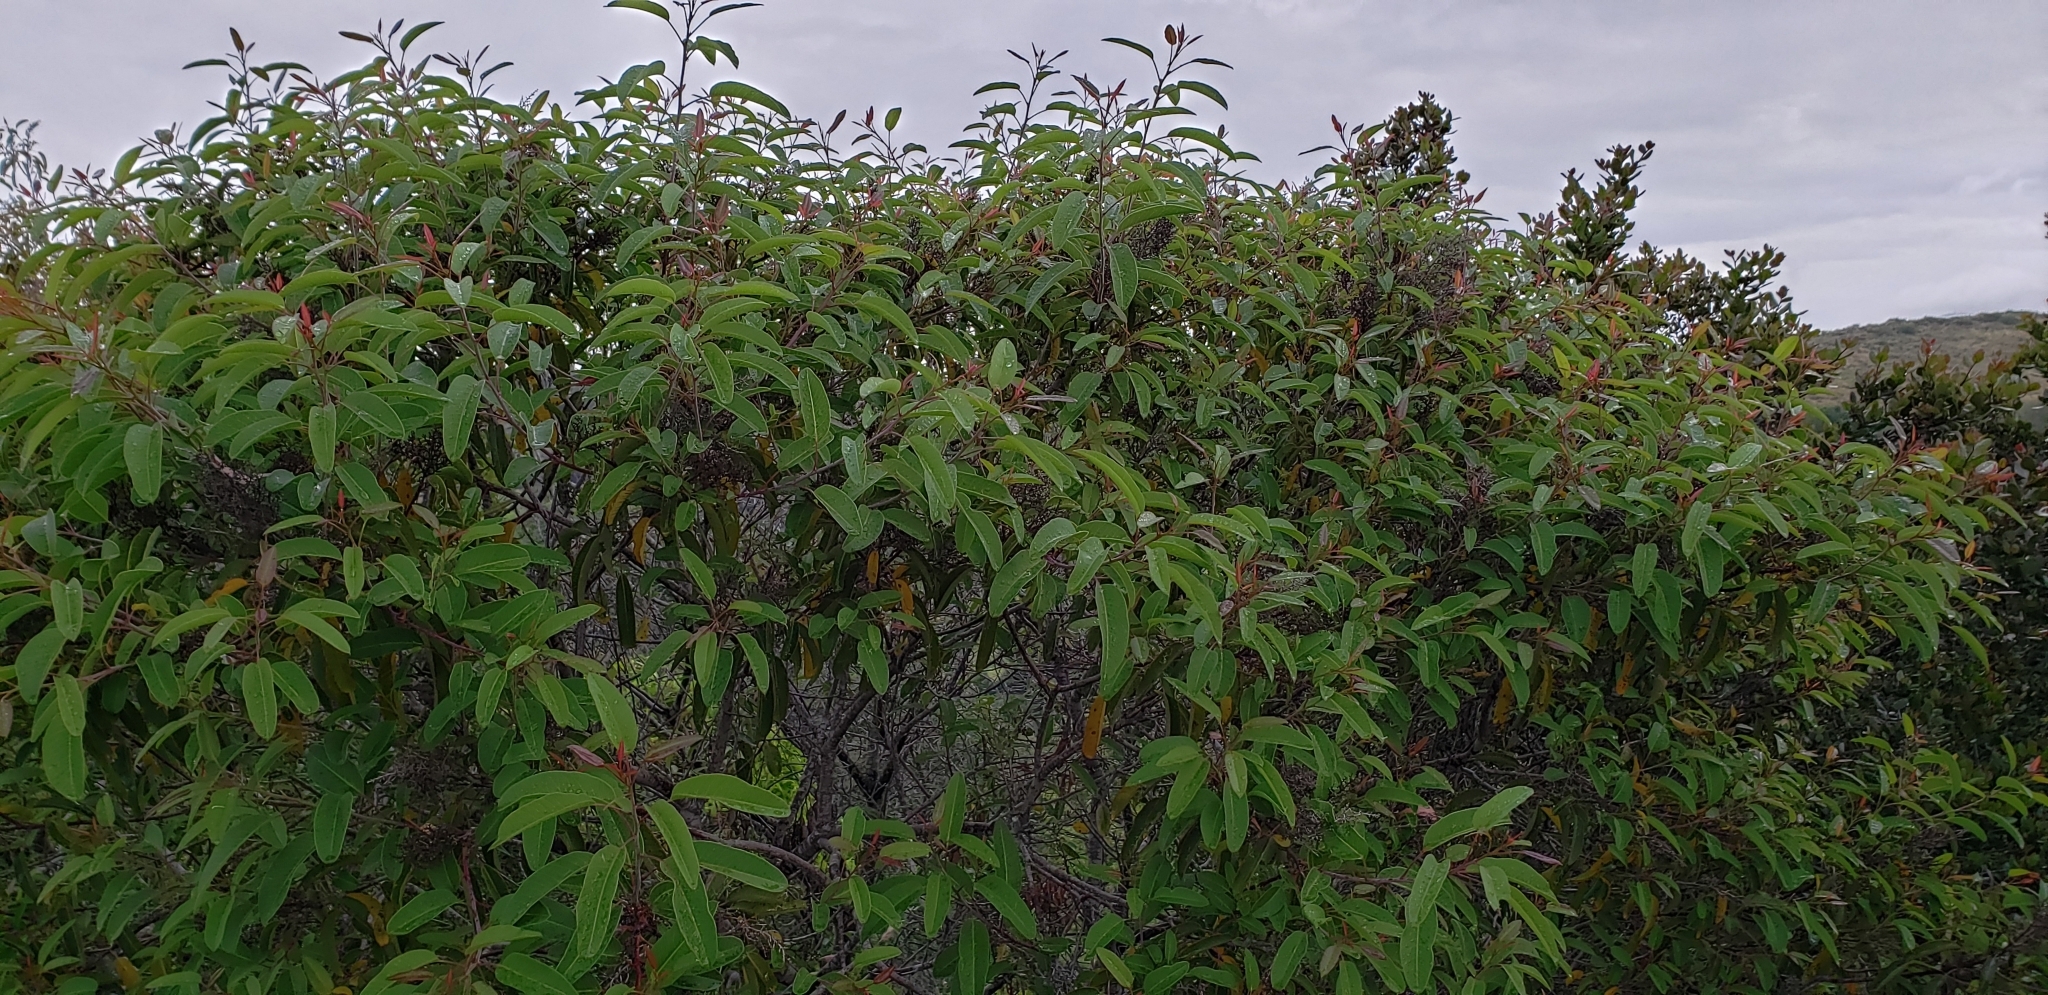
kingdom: Plantae
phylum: Tracheophyta
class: Magnoliopsida
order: Sapindales
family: Anacardiaceae
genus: Malosma
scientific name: Malosma laurina
